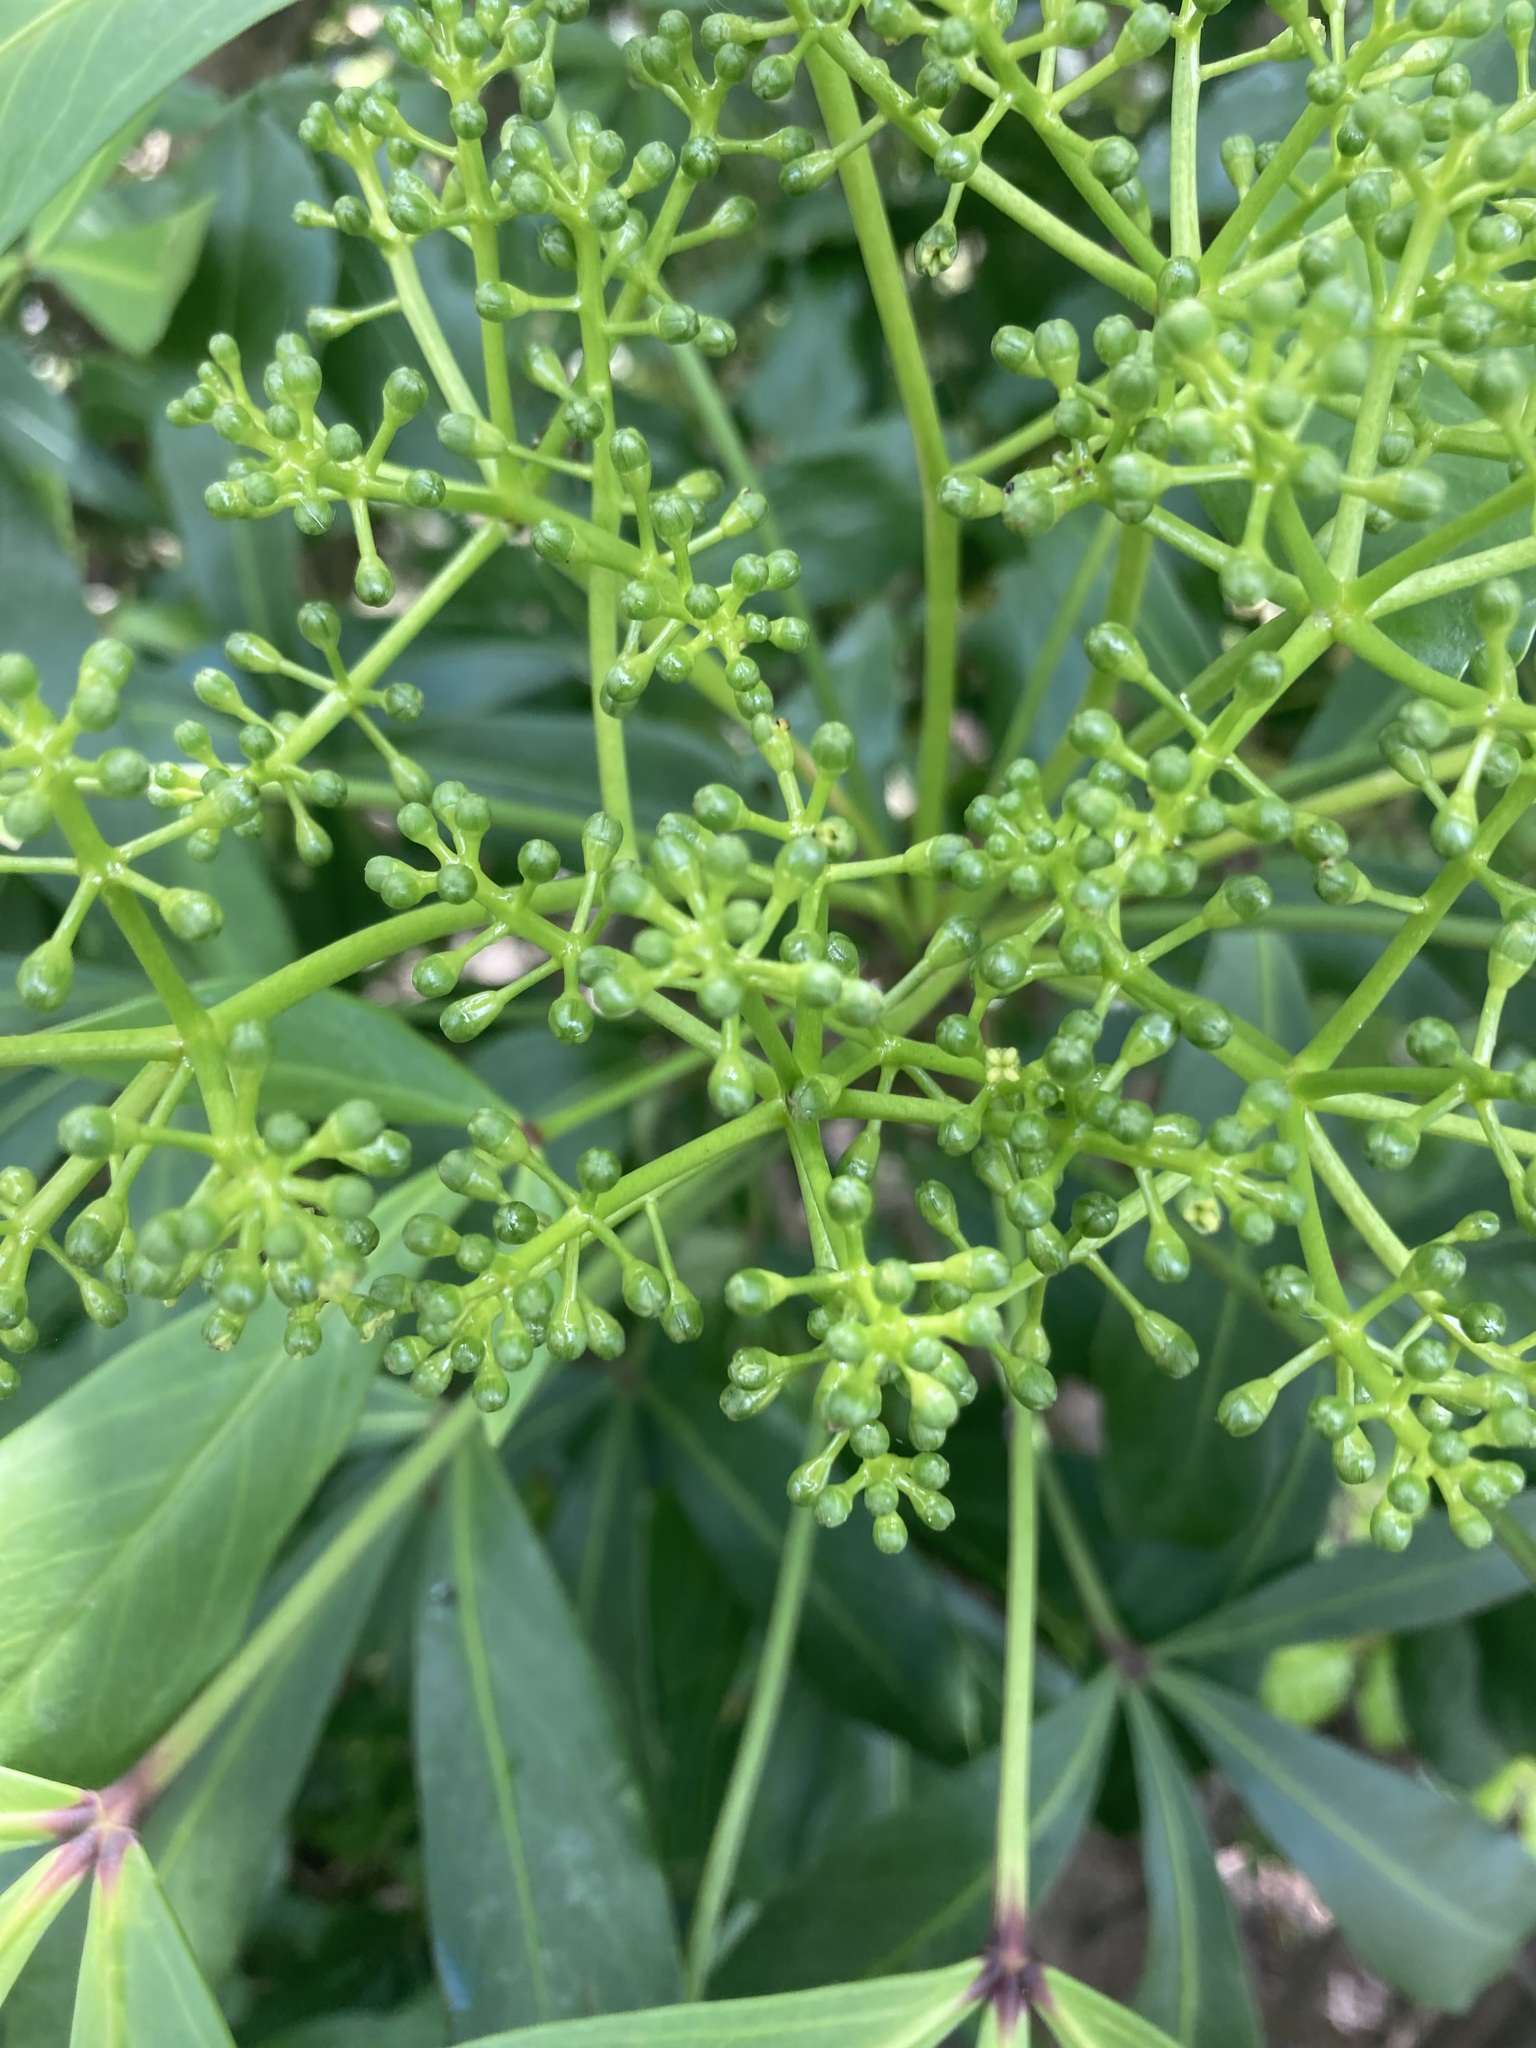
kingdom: Plantae
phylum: Tracheophyta
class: Magnoliopsida
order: Apiales
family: Araliaceae
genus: Pseudopanax
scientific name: Pseudopanax lessonii
